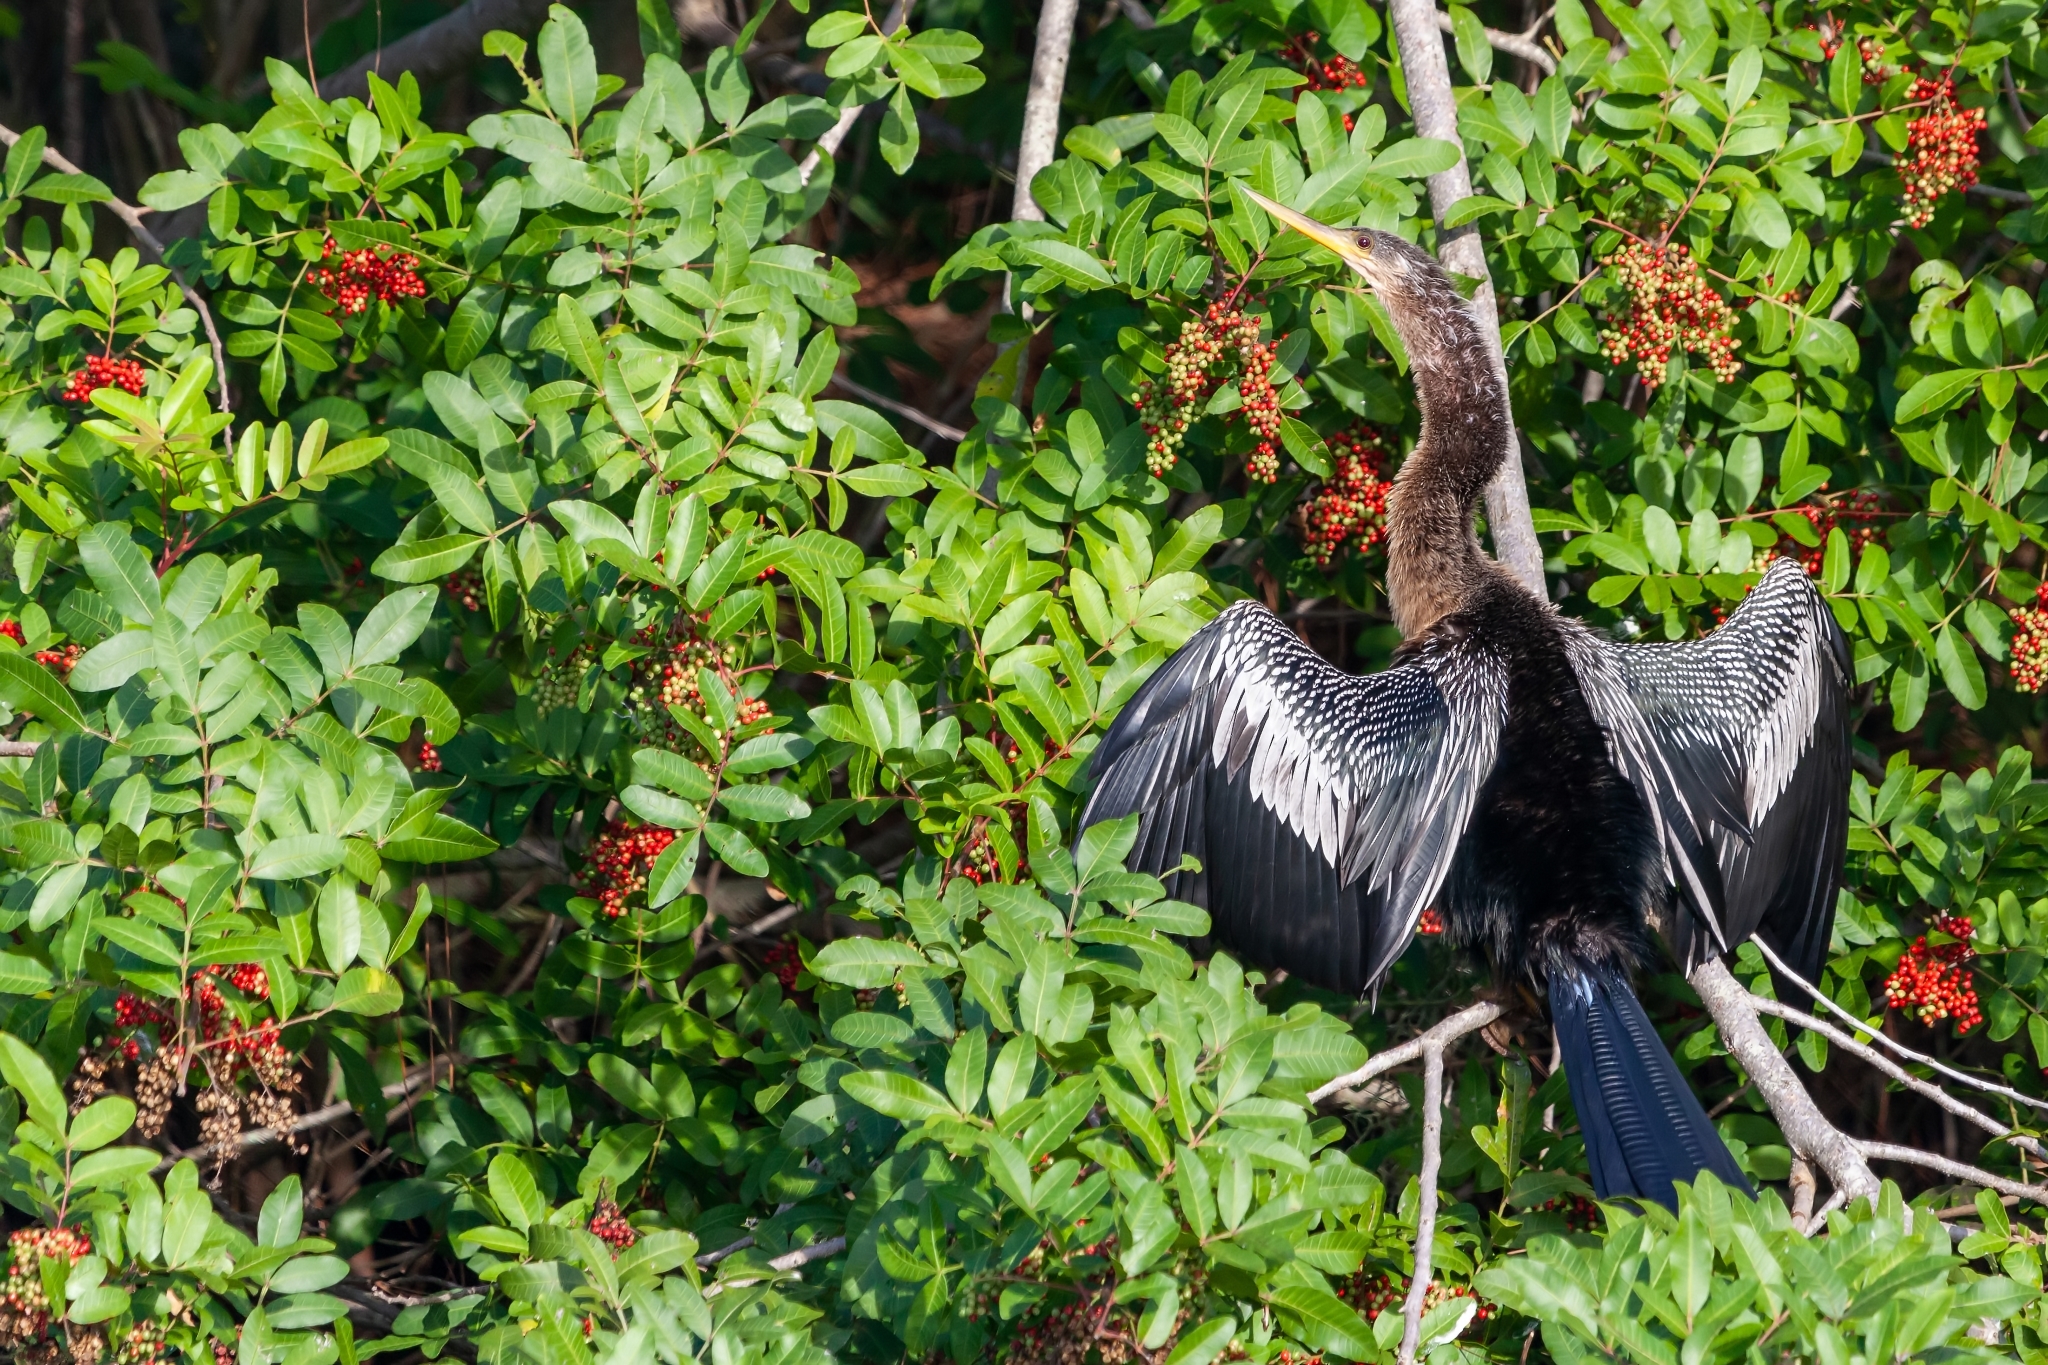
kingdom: Animalia
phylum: Chordata
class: Aves
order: Suliformes
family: Anhingidae
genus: Anhinga
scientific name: Anhinga anhinga
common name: Anhinga
